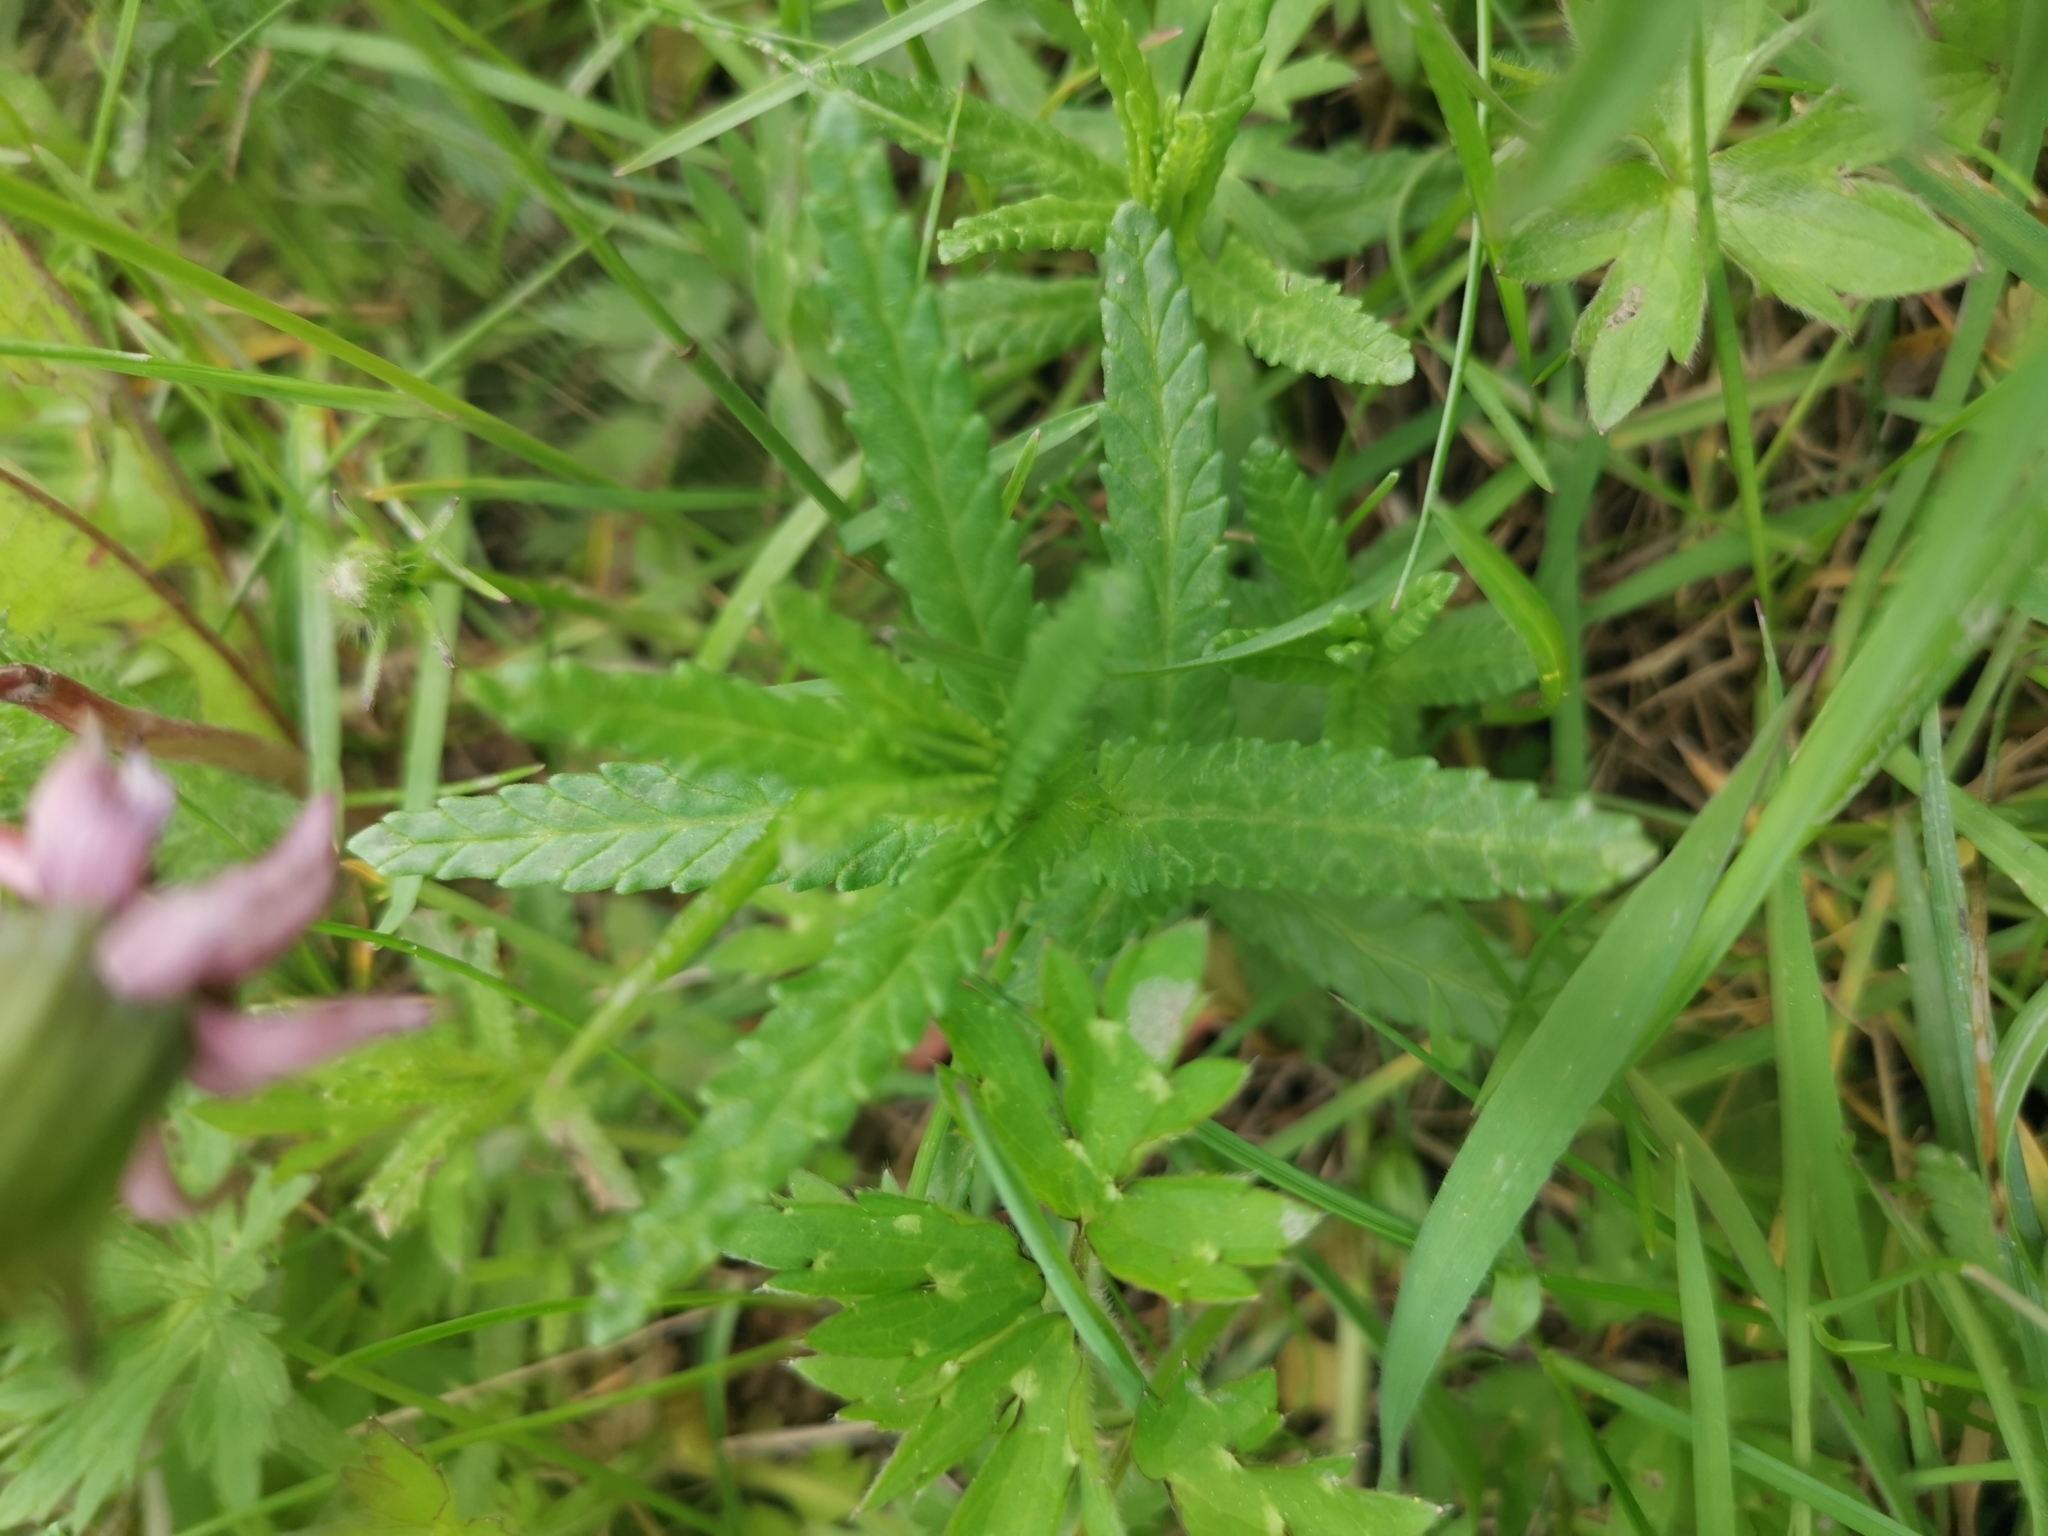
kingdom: Plantae
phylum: Tracheophyta
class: Magnoliopsida
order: Lamiales
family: Orobanchaceae
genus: Rhinanthus
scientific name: Rhinanthus minor
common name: Yellow-rattle
